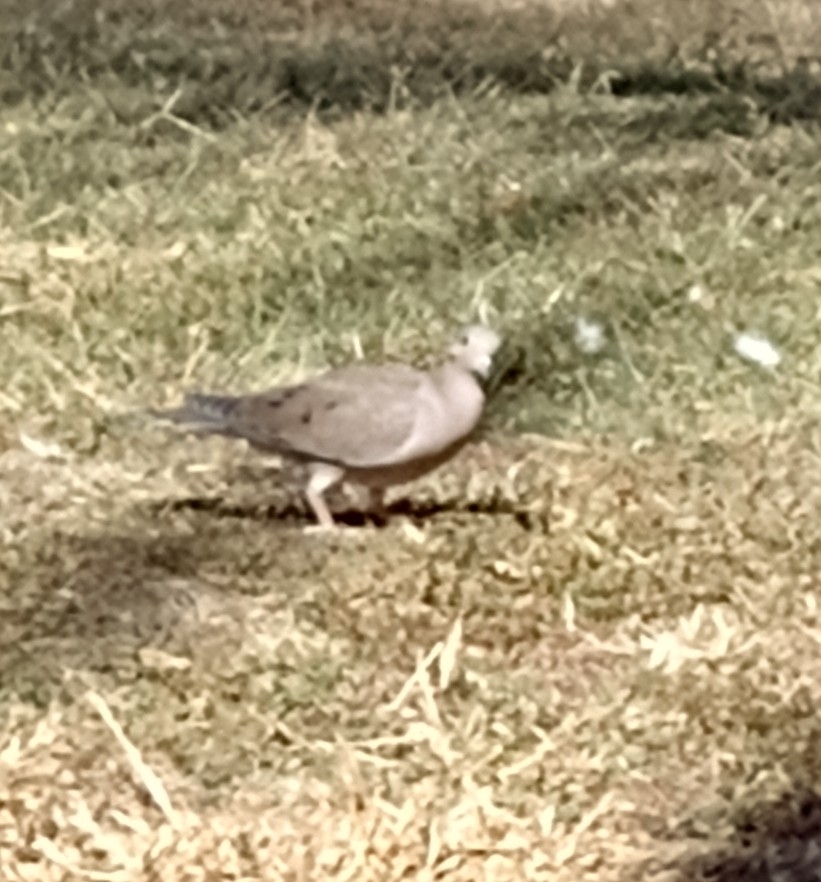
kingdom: Animalia
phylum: Chordata
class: Aves
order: Columbiformes
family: Columbidae
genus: Zenaida
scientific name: Zenaida auriculata
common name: Eared dove
